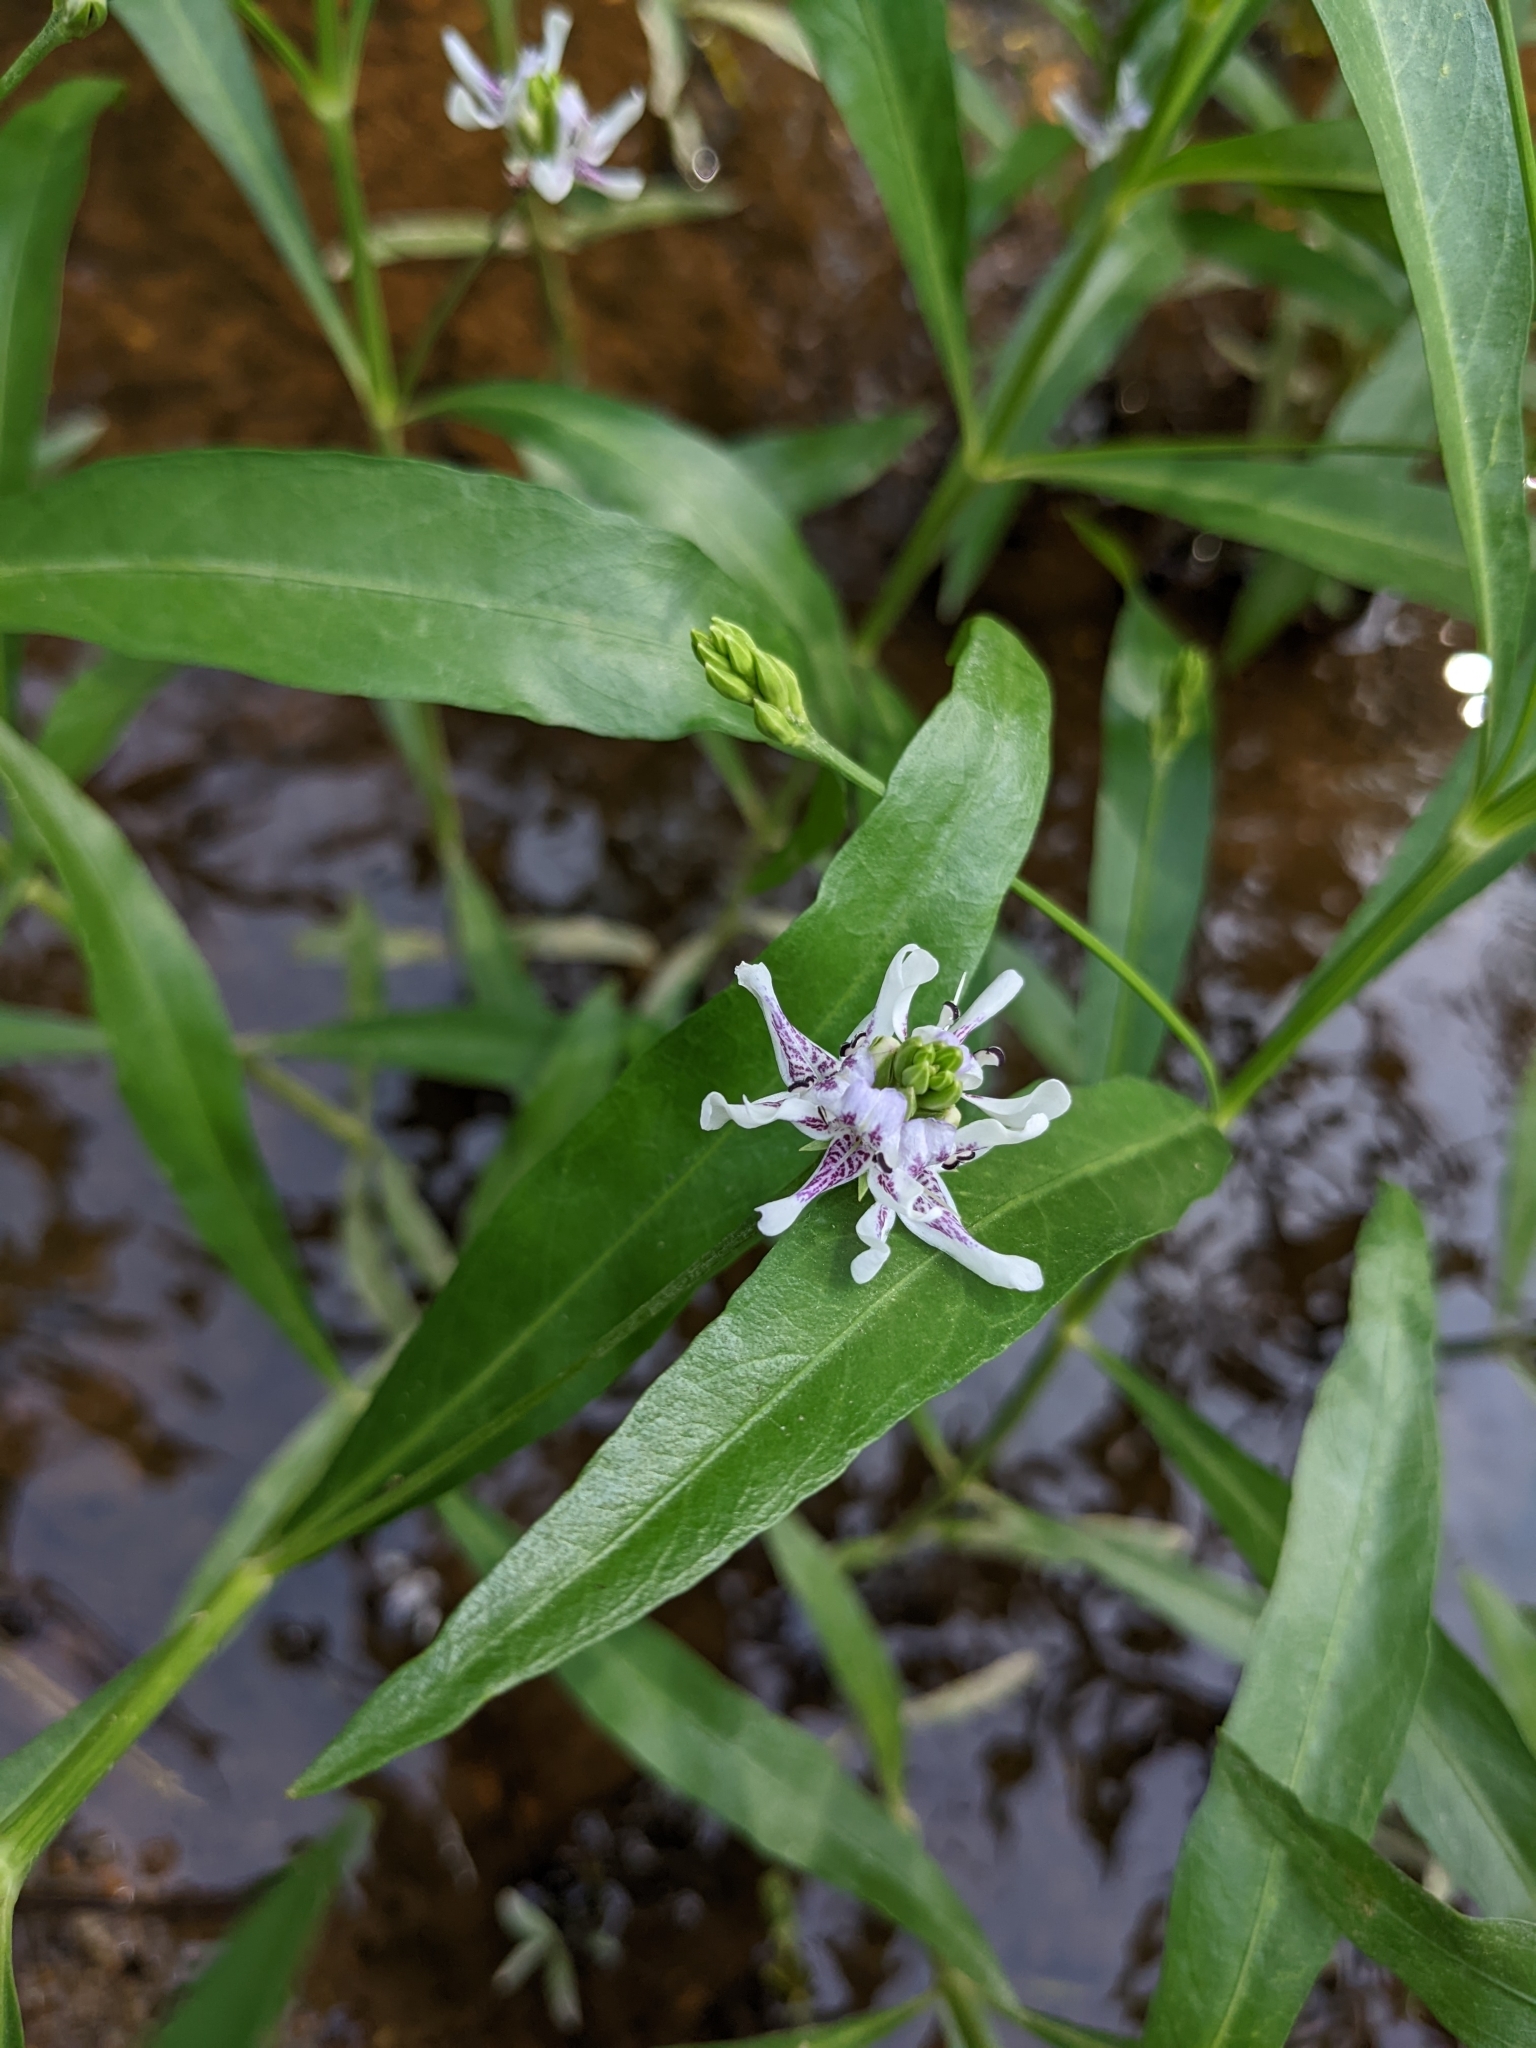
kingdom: Plantae
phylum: Tracheophyta
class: Magnoliopsida
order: Lamiales
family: Acanthaceae
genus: Dianthera
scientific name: Dianthera americana
